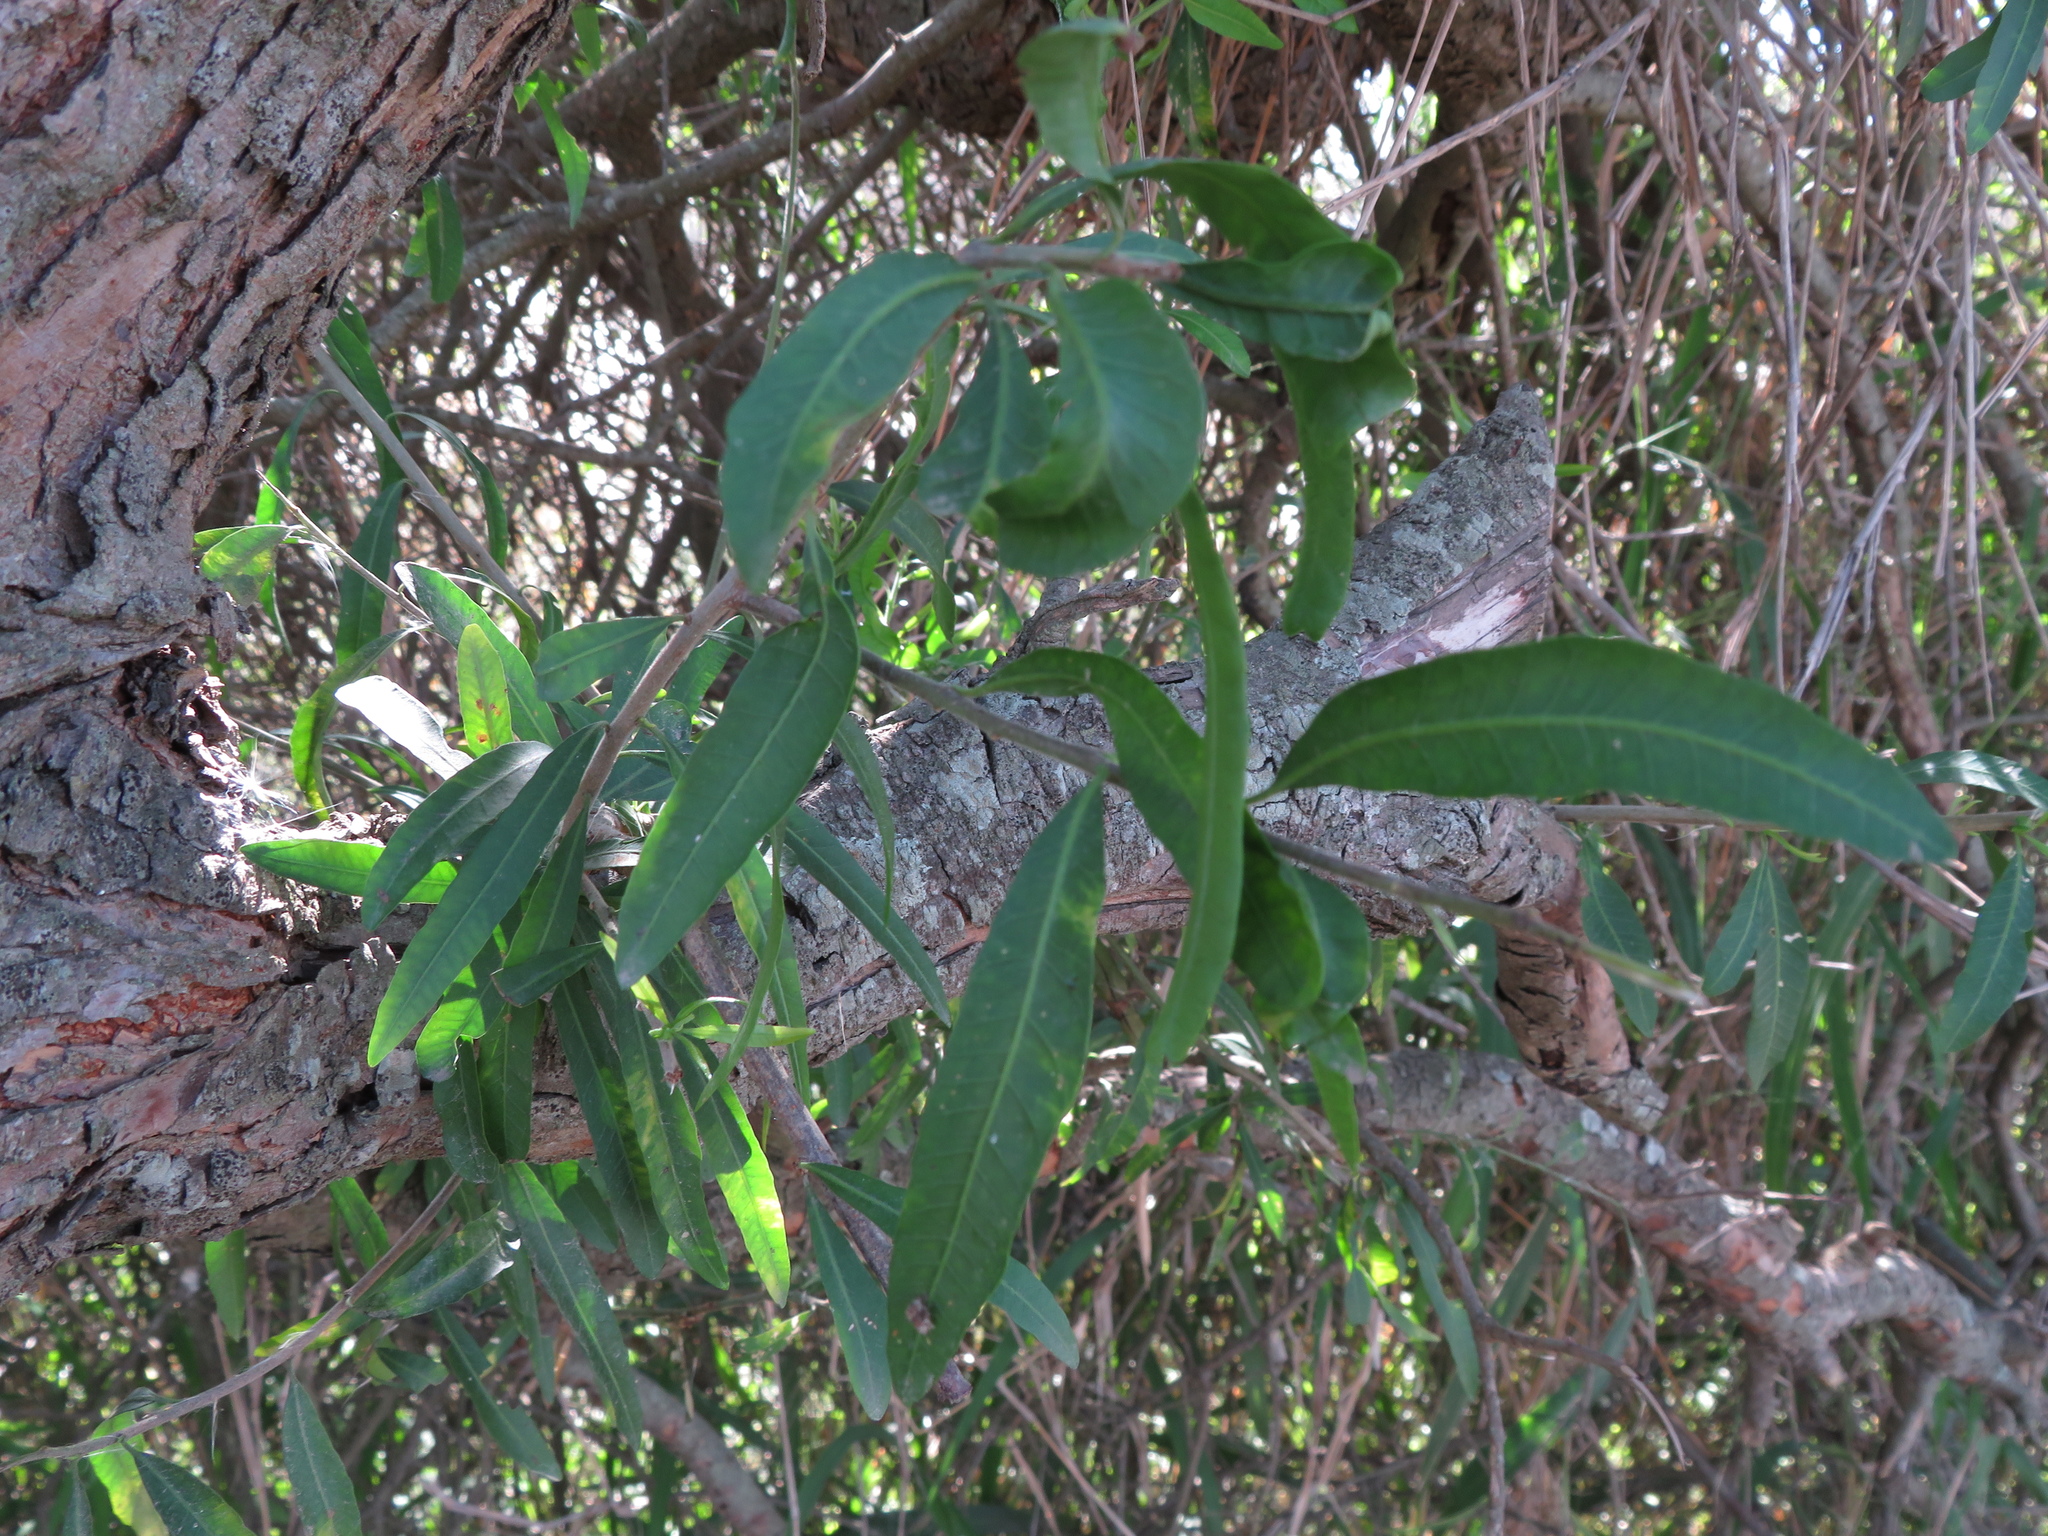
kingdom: Plantae
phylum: Tracheophyta
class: Magnoliopsida
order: Malpighiales
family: Euphorbiaceae
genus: Sapium
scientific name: Sapium haematospermum
